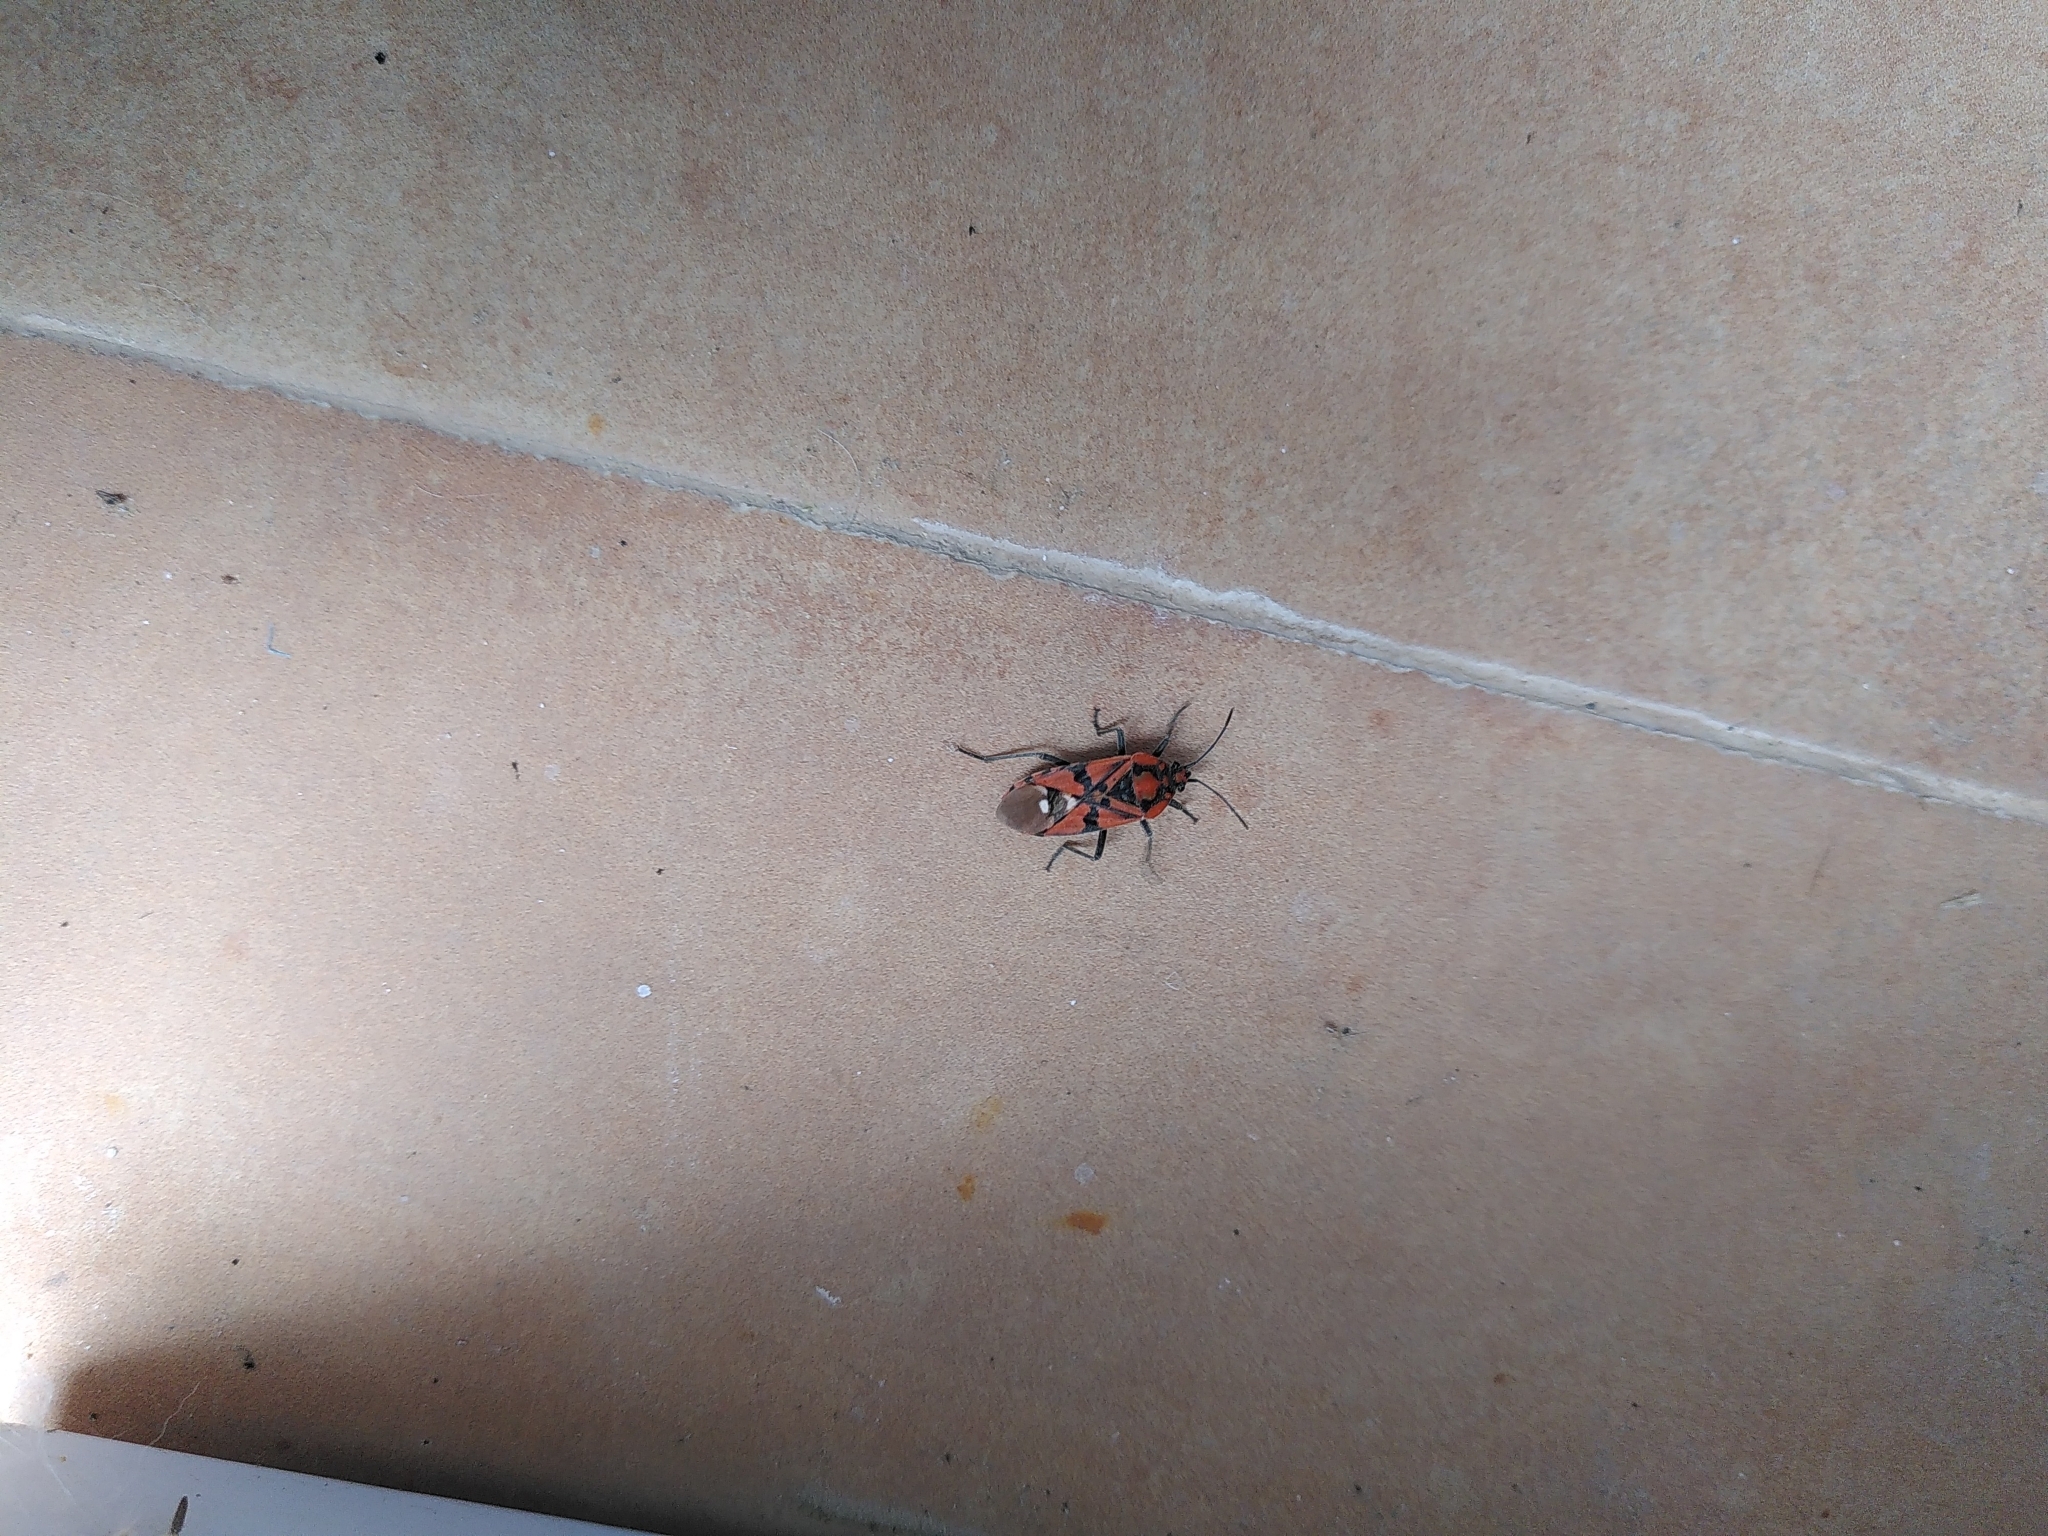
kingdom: Animalia
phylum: Arthropoda
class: Insecta
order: Hemiptera
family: Lygaeidae
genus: Spilostethus
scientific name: Spilostethus pandurus
